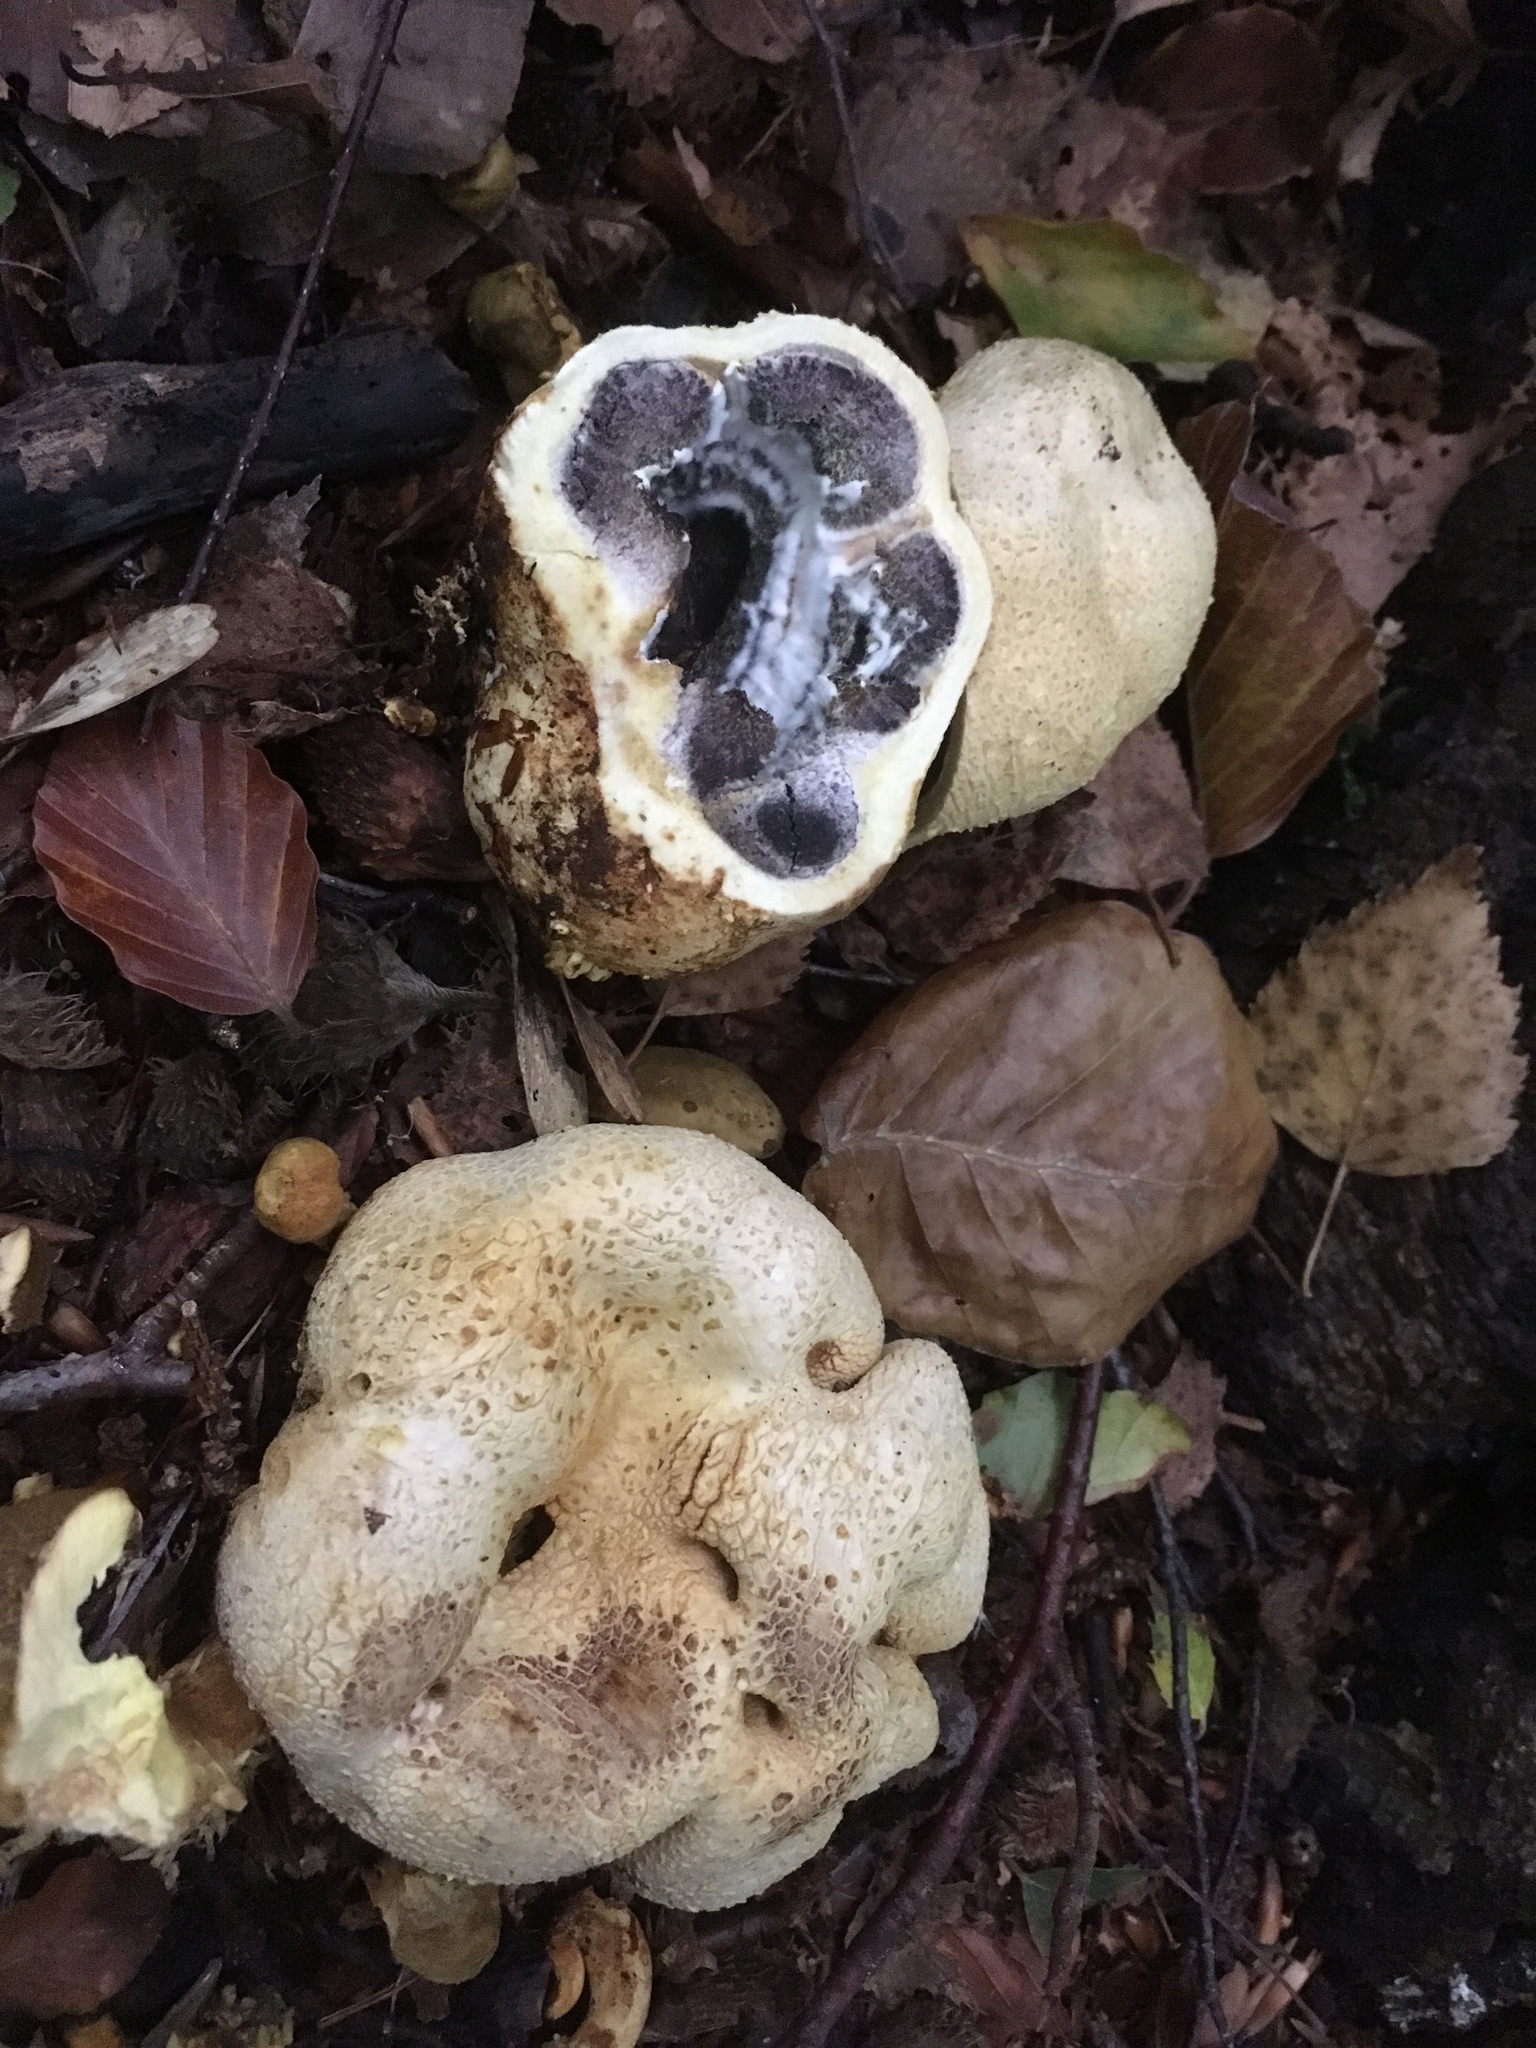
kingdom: Fungi
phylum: Basidiomycota
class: Agaricomycetes
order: Boletales
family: Sclerodermataceae
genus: Scleroderma
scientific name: Scleroderma citrinum
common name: Common earthball
